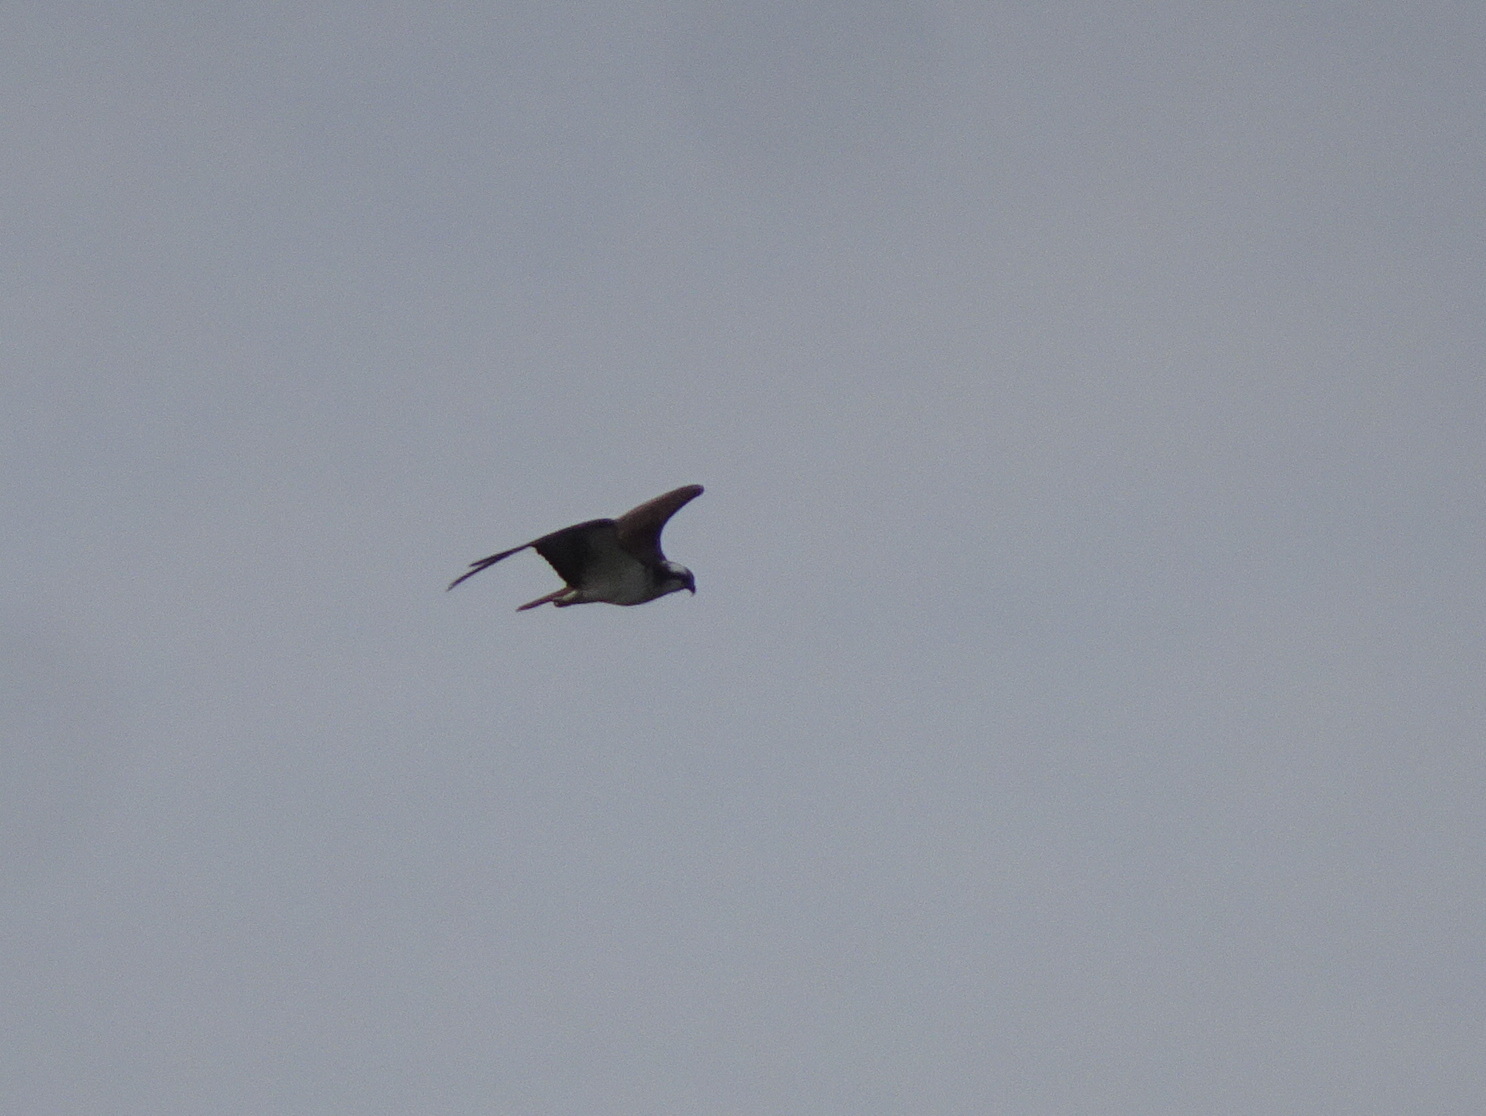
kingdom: Animalia
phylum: Chordata
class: Aves
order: Accipitriformes
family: Pandionidae
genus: Pandion
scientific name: Pandion haliaetus
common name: Osprey
